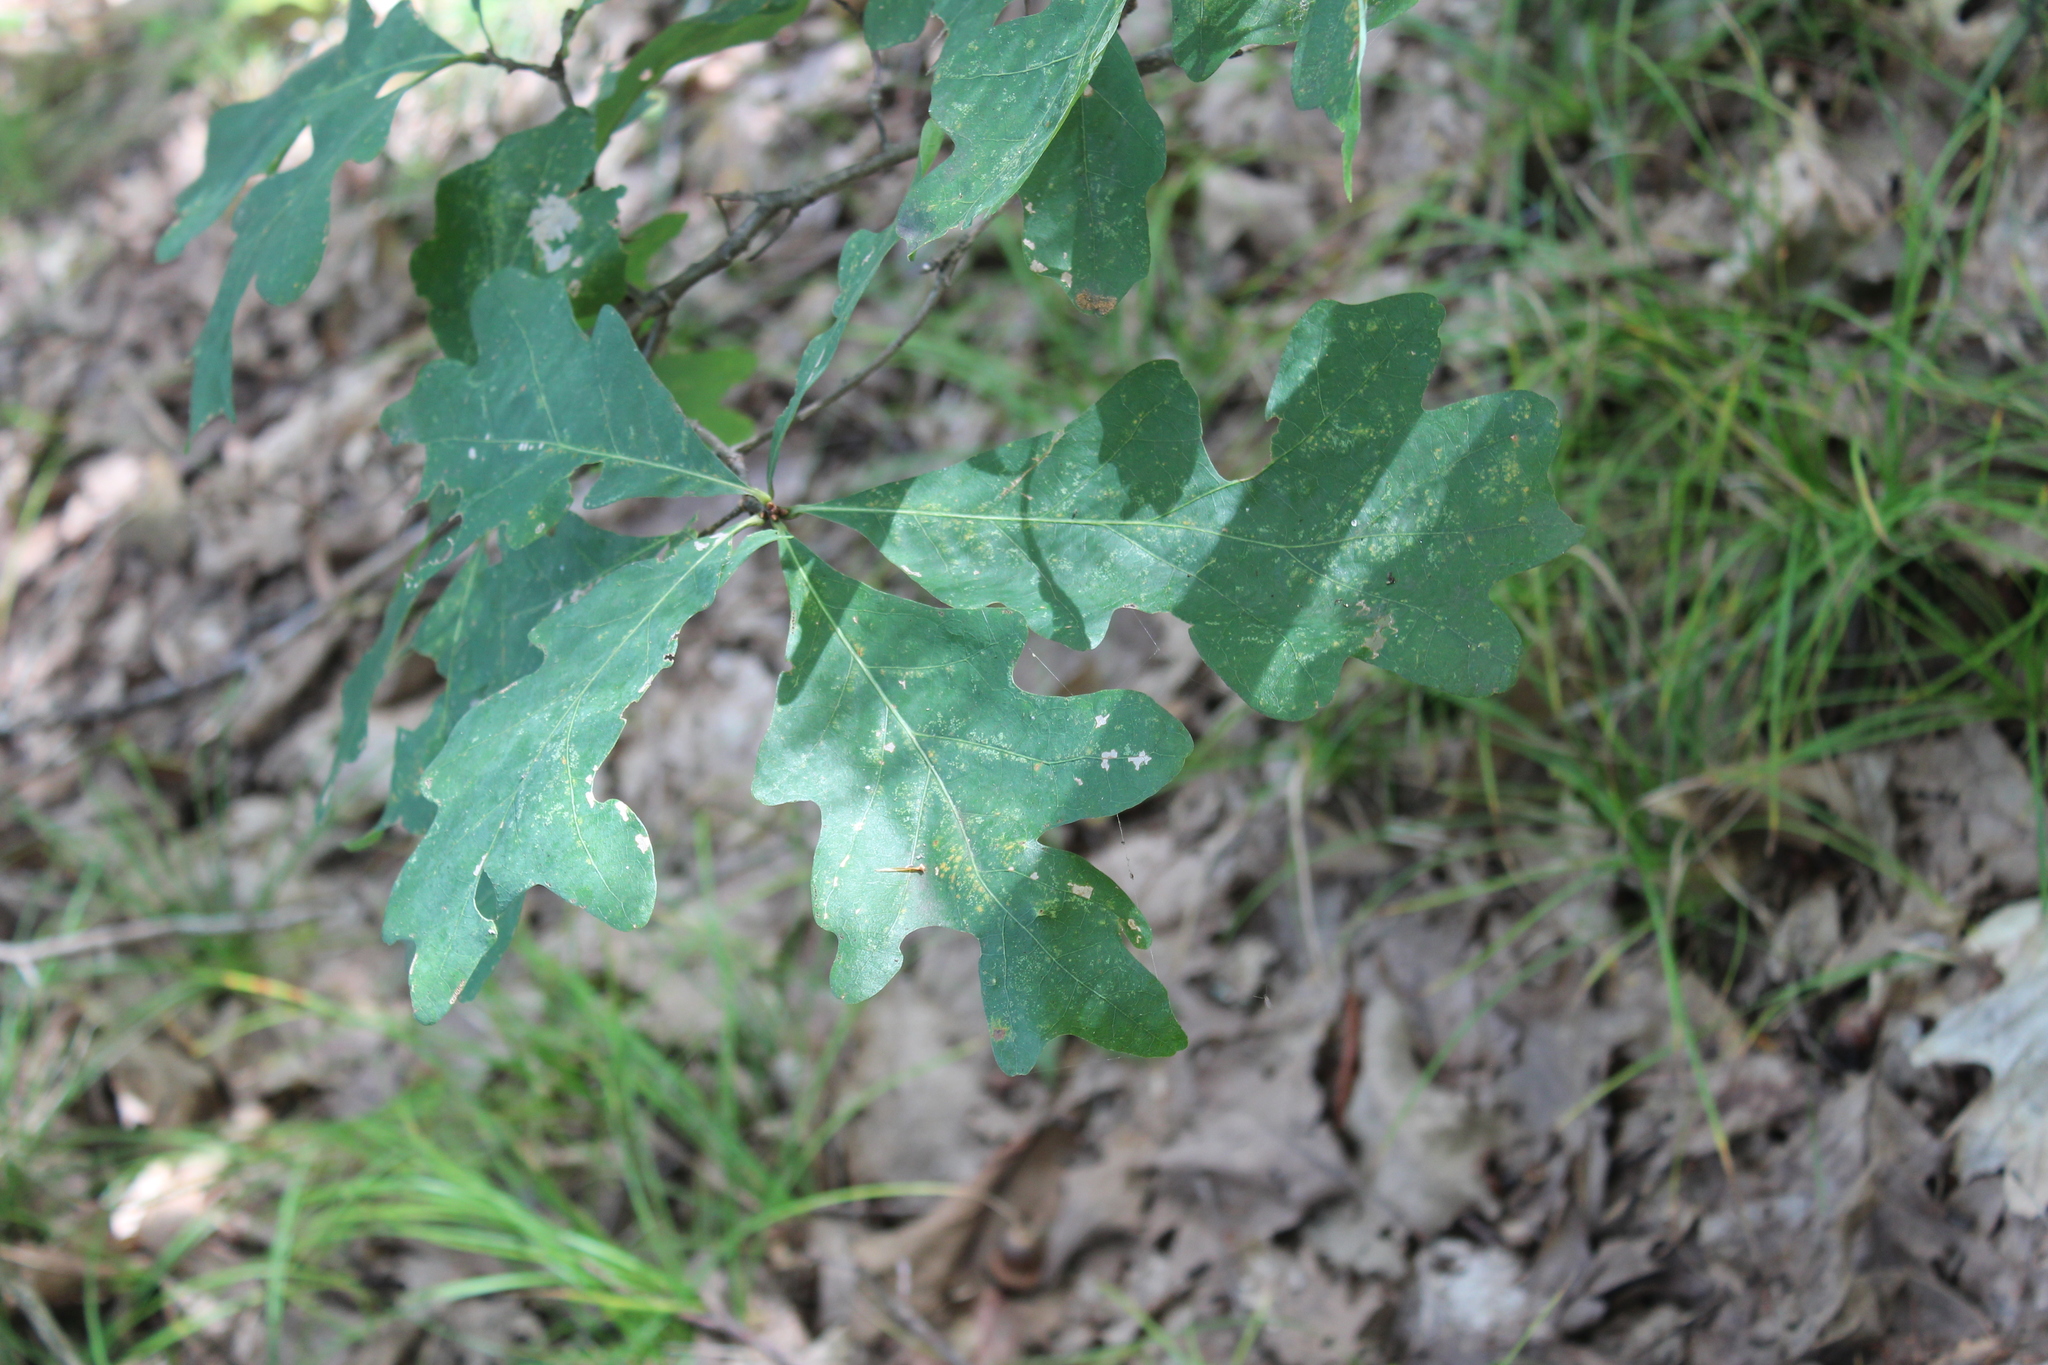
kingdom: Plantae
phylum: Tracheophyta
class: Magnoliopsida
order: Fagales
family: Fagaceae
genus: Quercus
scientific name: Quercus alba
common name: White oak
